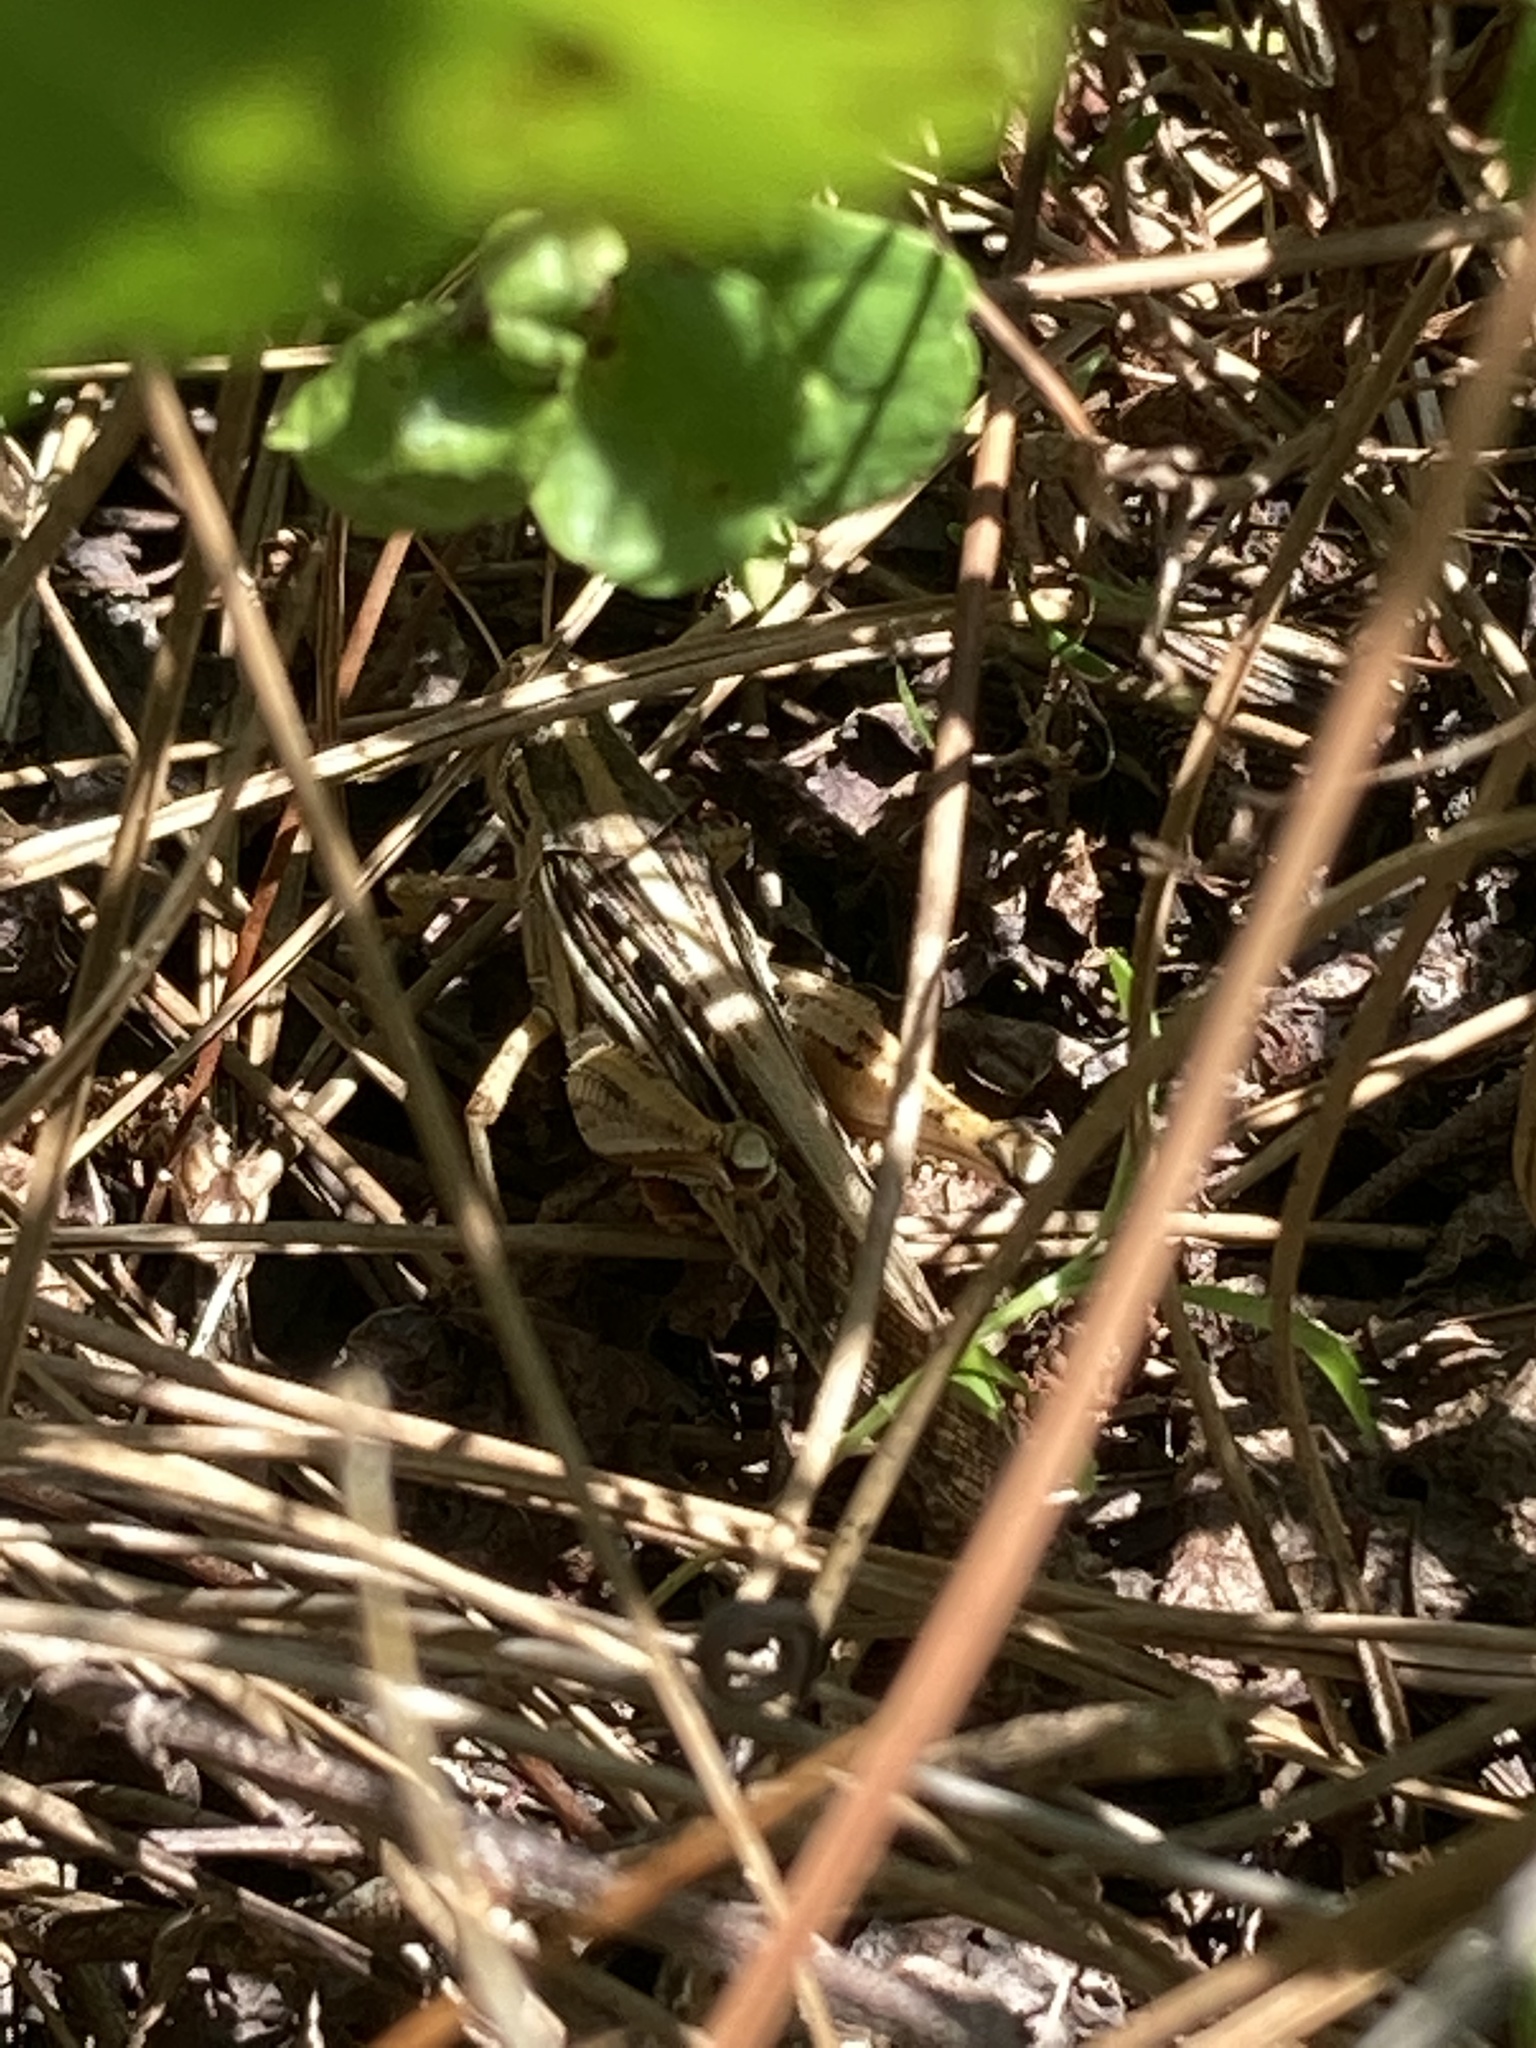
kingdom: Animalia
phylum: Arthropoda
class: Insecta
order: Orthoptera
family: Acrididae
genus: Schistocerca
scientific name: Schistocerca americana
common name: American bird locust
